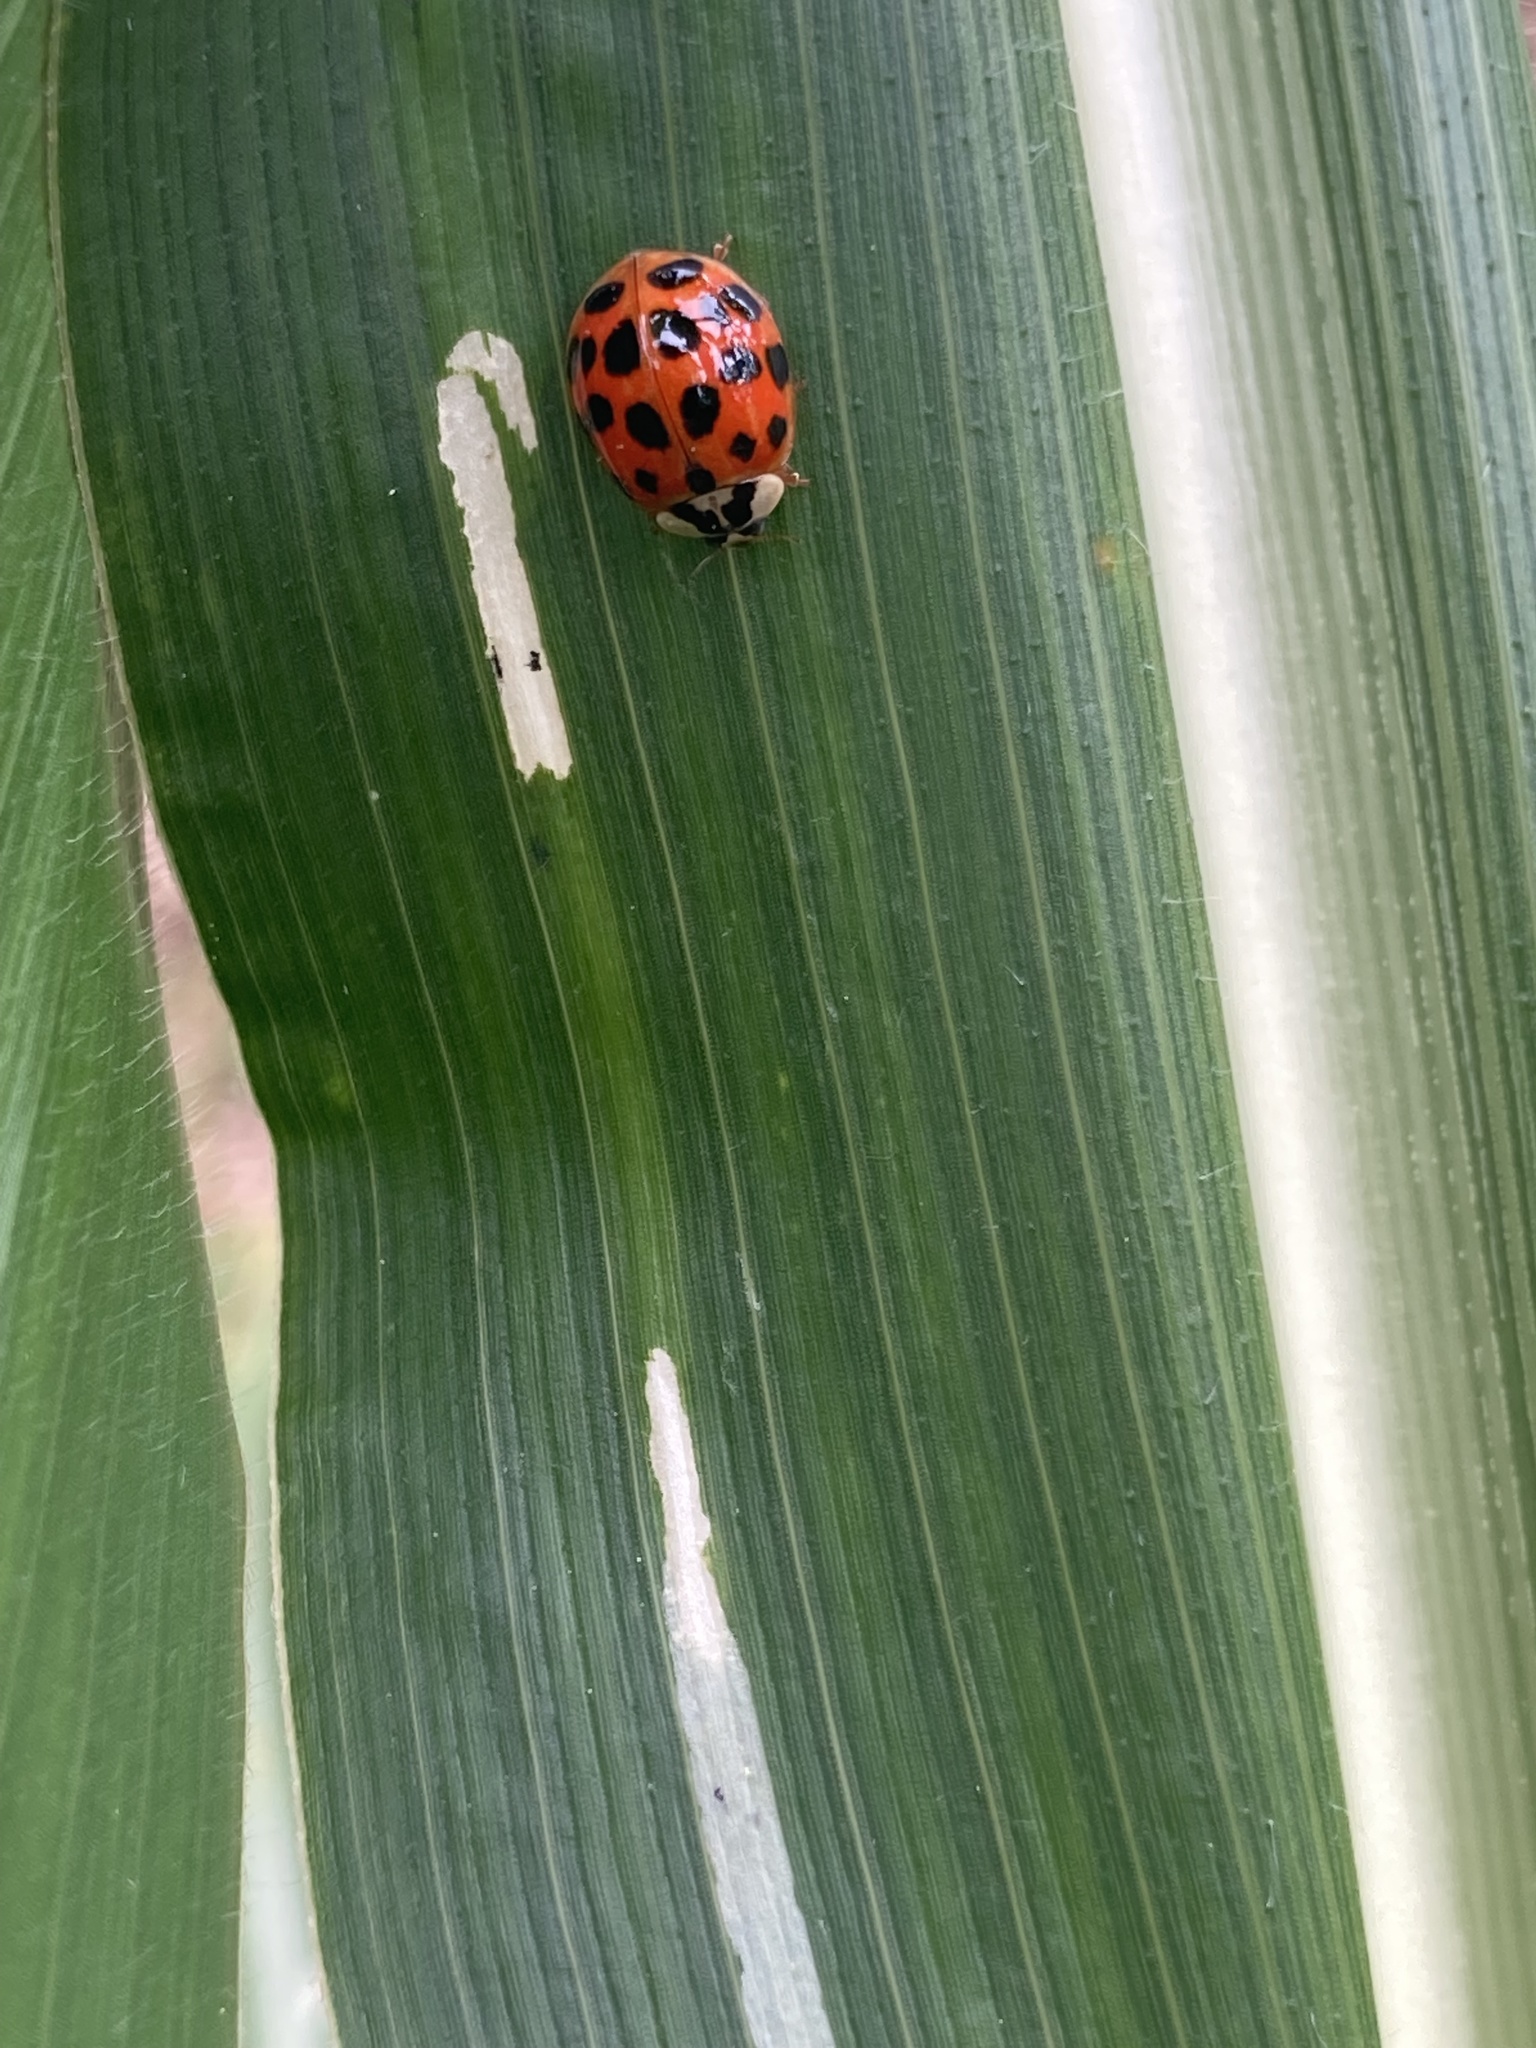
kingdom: Animalia
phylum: Arthropoda
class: Insecta
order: Coleoptera
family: Coccinellidae
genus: Harmonia
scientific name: Harmonia axyridis
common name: Harlequin ladybird
